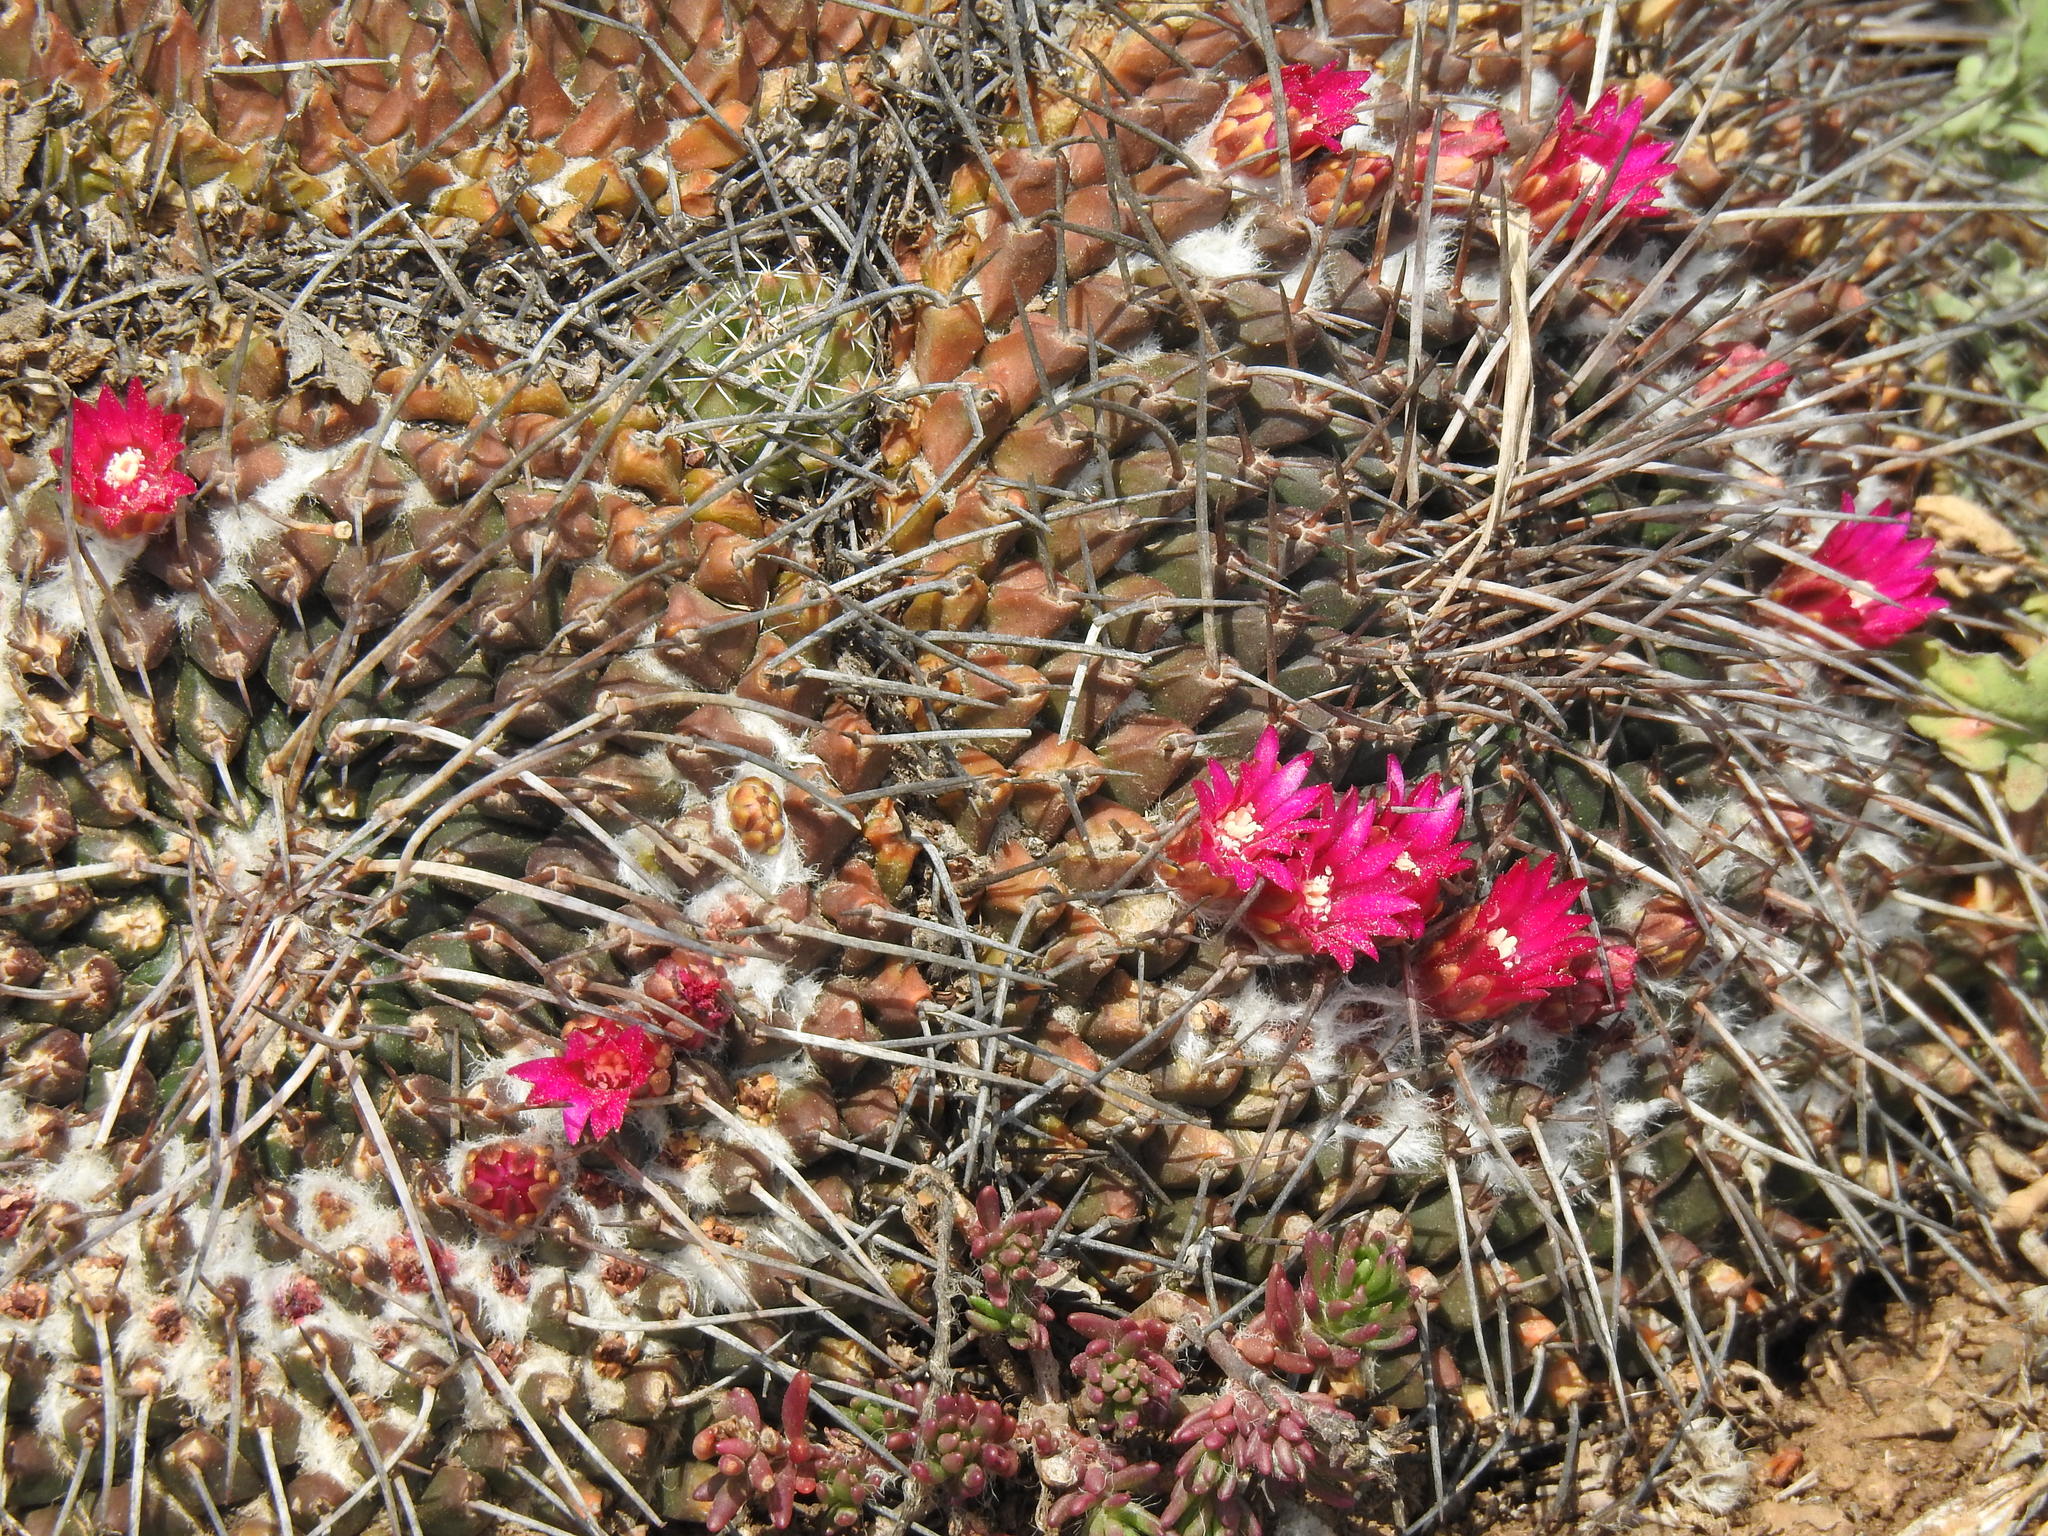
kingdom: Plantae
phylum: Tracheophyta
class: Magnoliopsida
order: Caryophyllales
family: Cactaceae
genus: Mammillaria
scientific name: Mammillaria magnimamma
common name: Mexican pincushion
